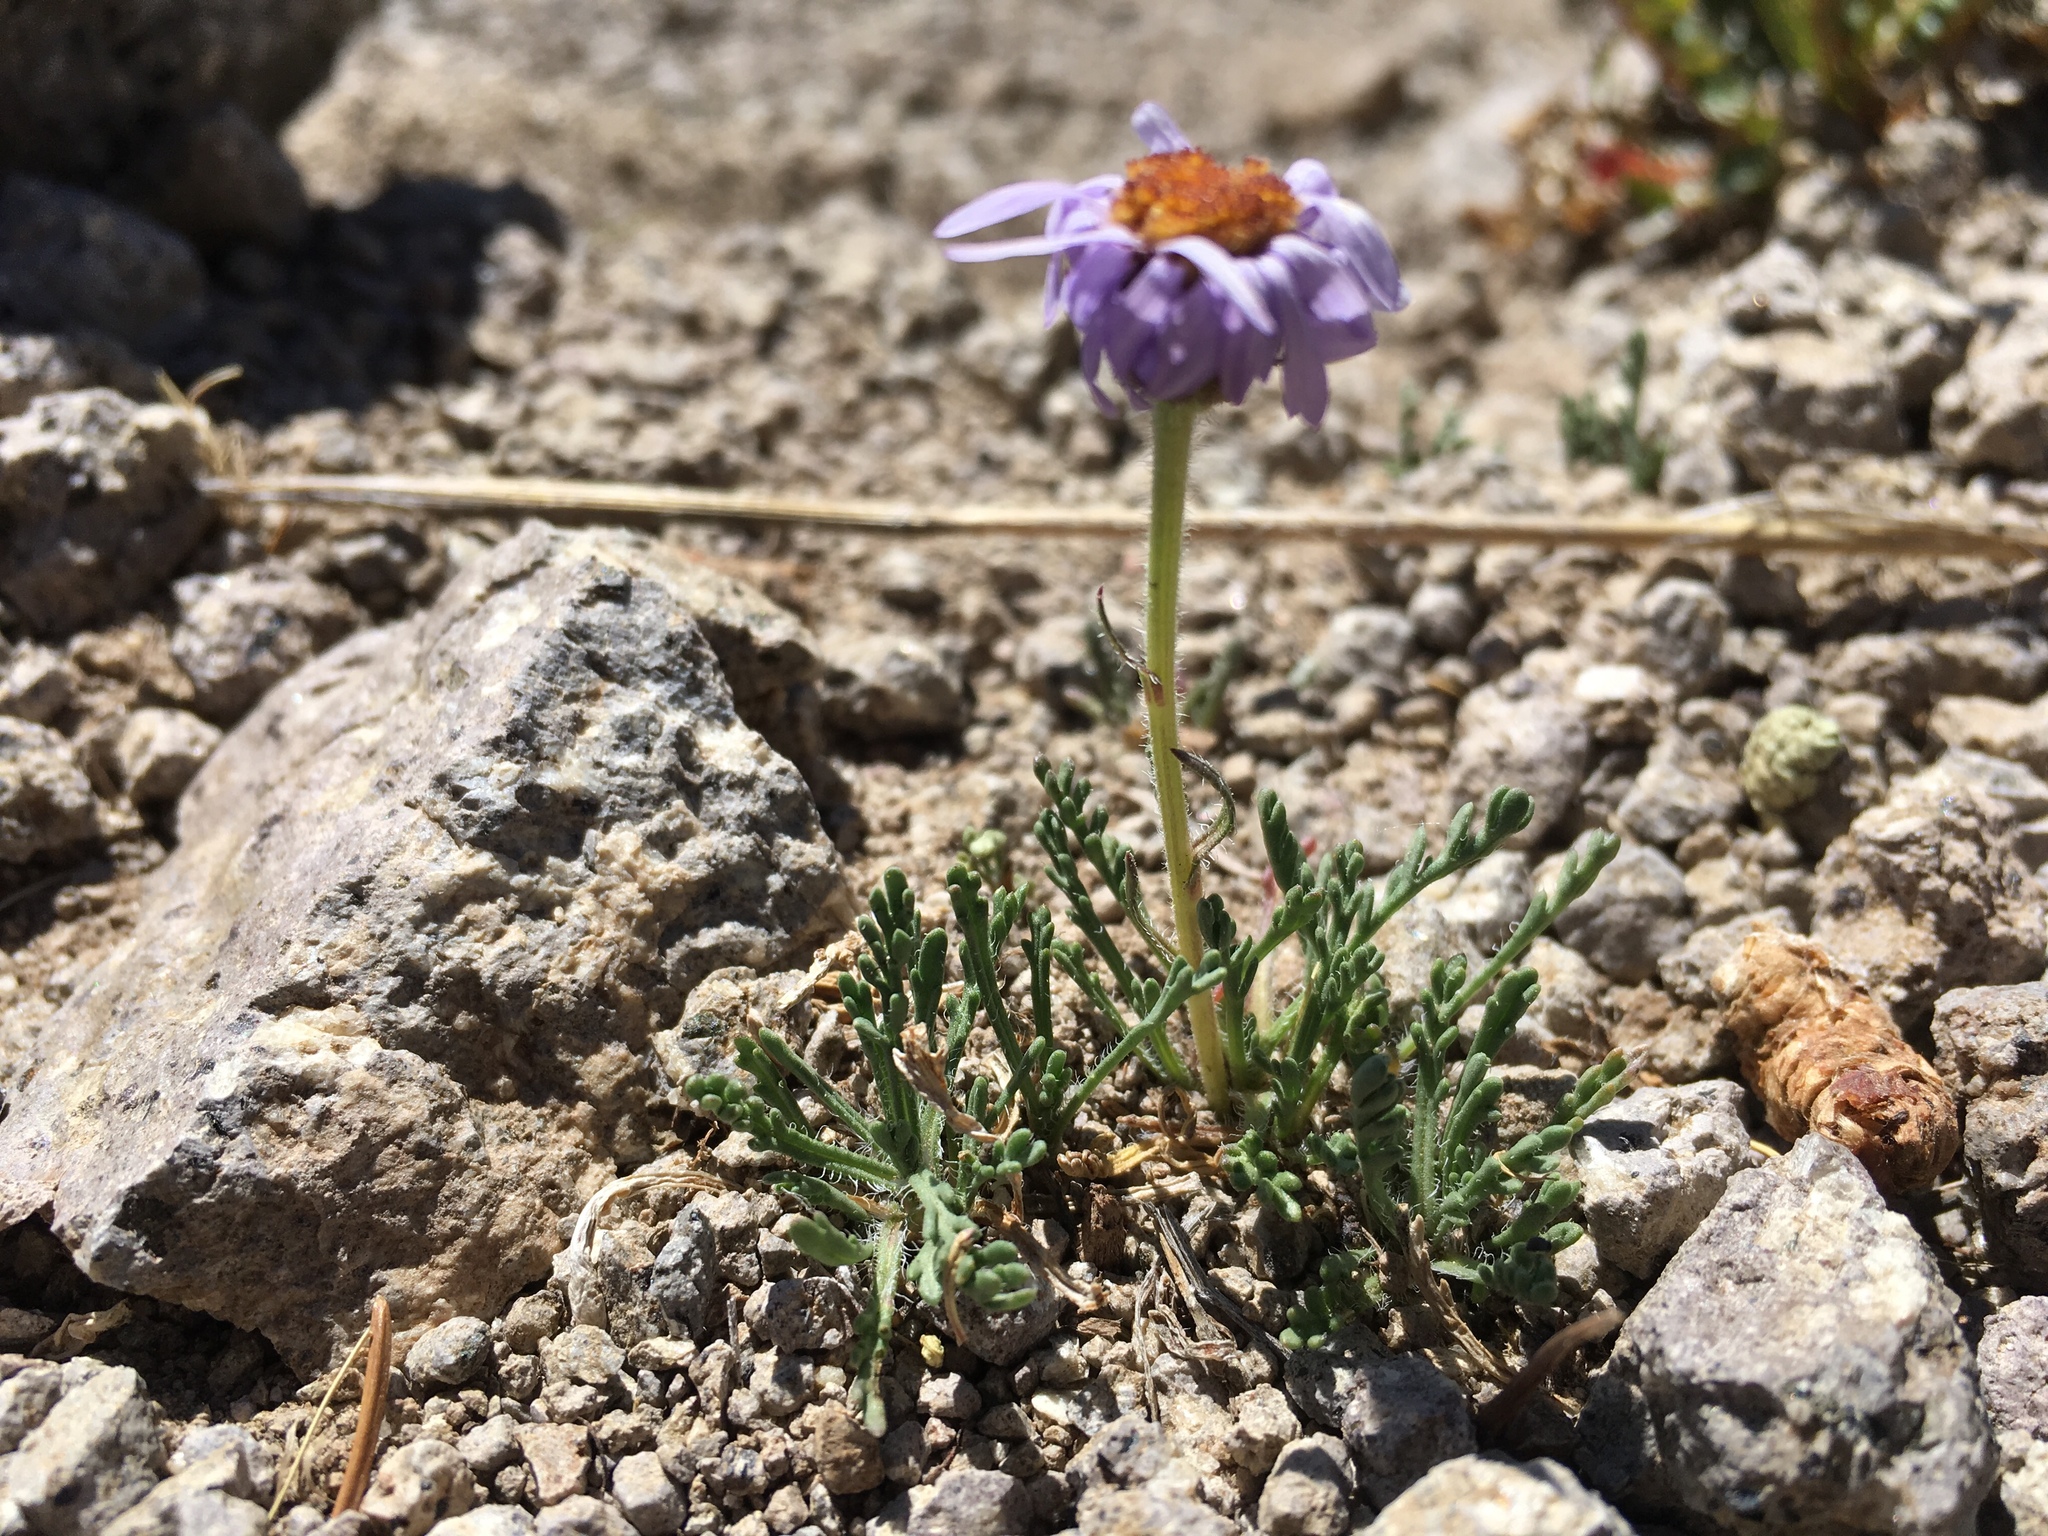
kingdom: Plantae
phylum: Tracheophyta
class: Magnoliopsida
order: Asterales
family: Asteraceae
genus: Erigeron
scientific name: Erigeron pinnatisectus
